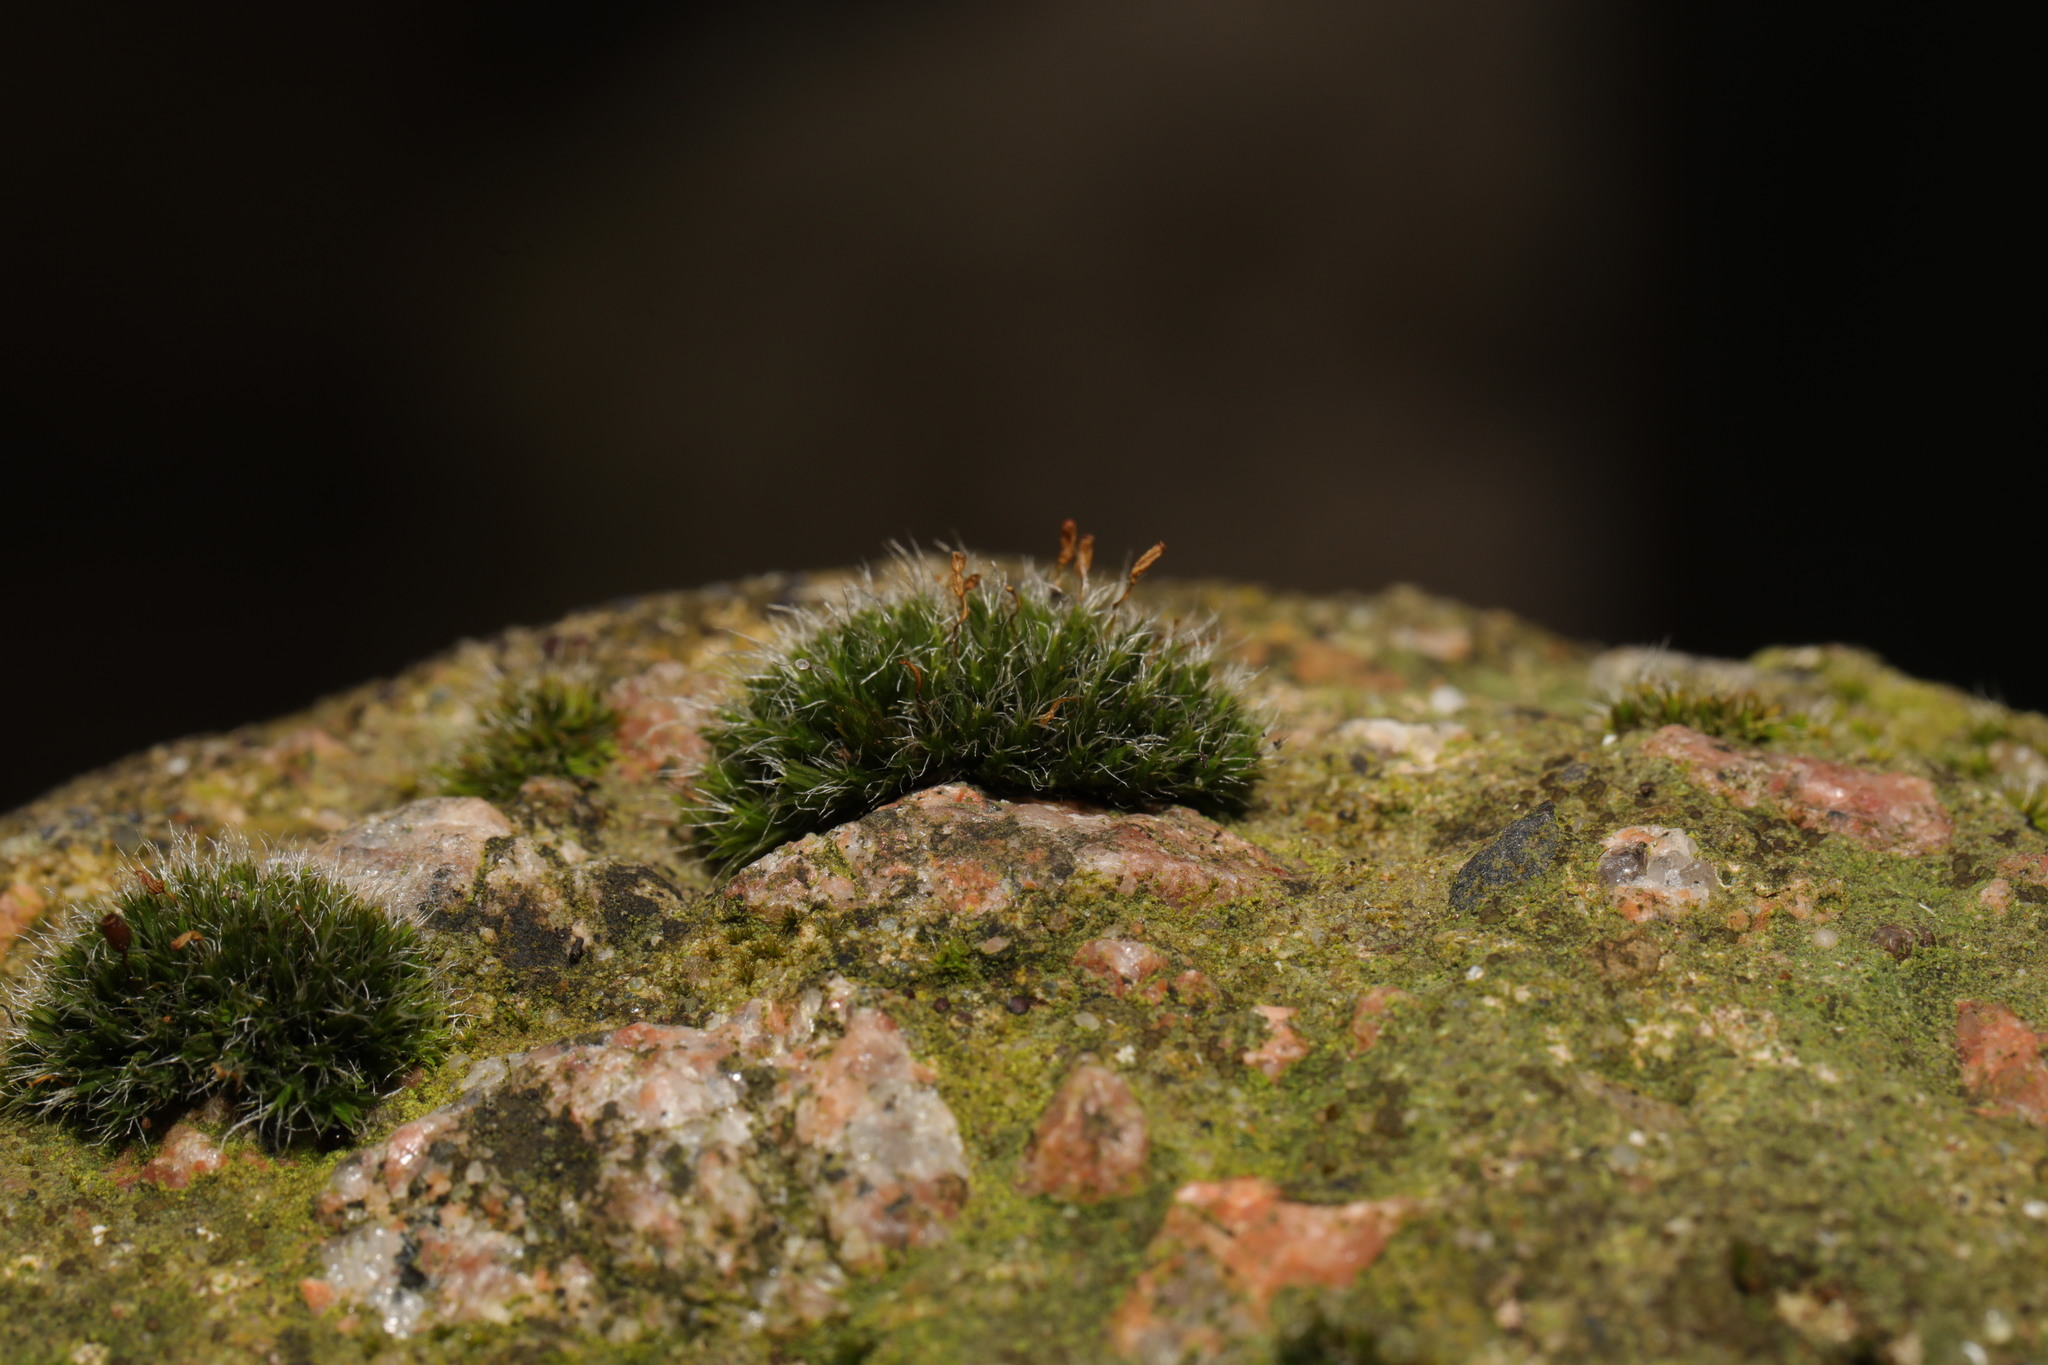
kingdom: Plantae
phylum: Bryophyta
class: Bryopsida
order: Grimmiales
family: Grimmiaceae
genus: Grimmia
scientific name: Grimmia pulvinata
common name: Grey-cushioned grimmia
